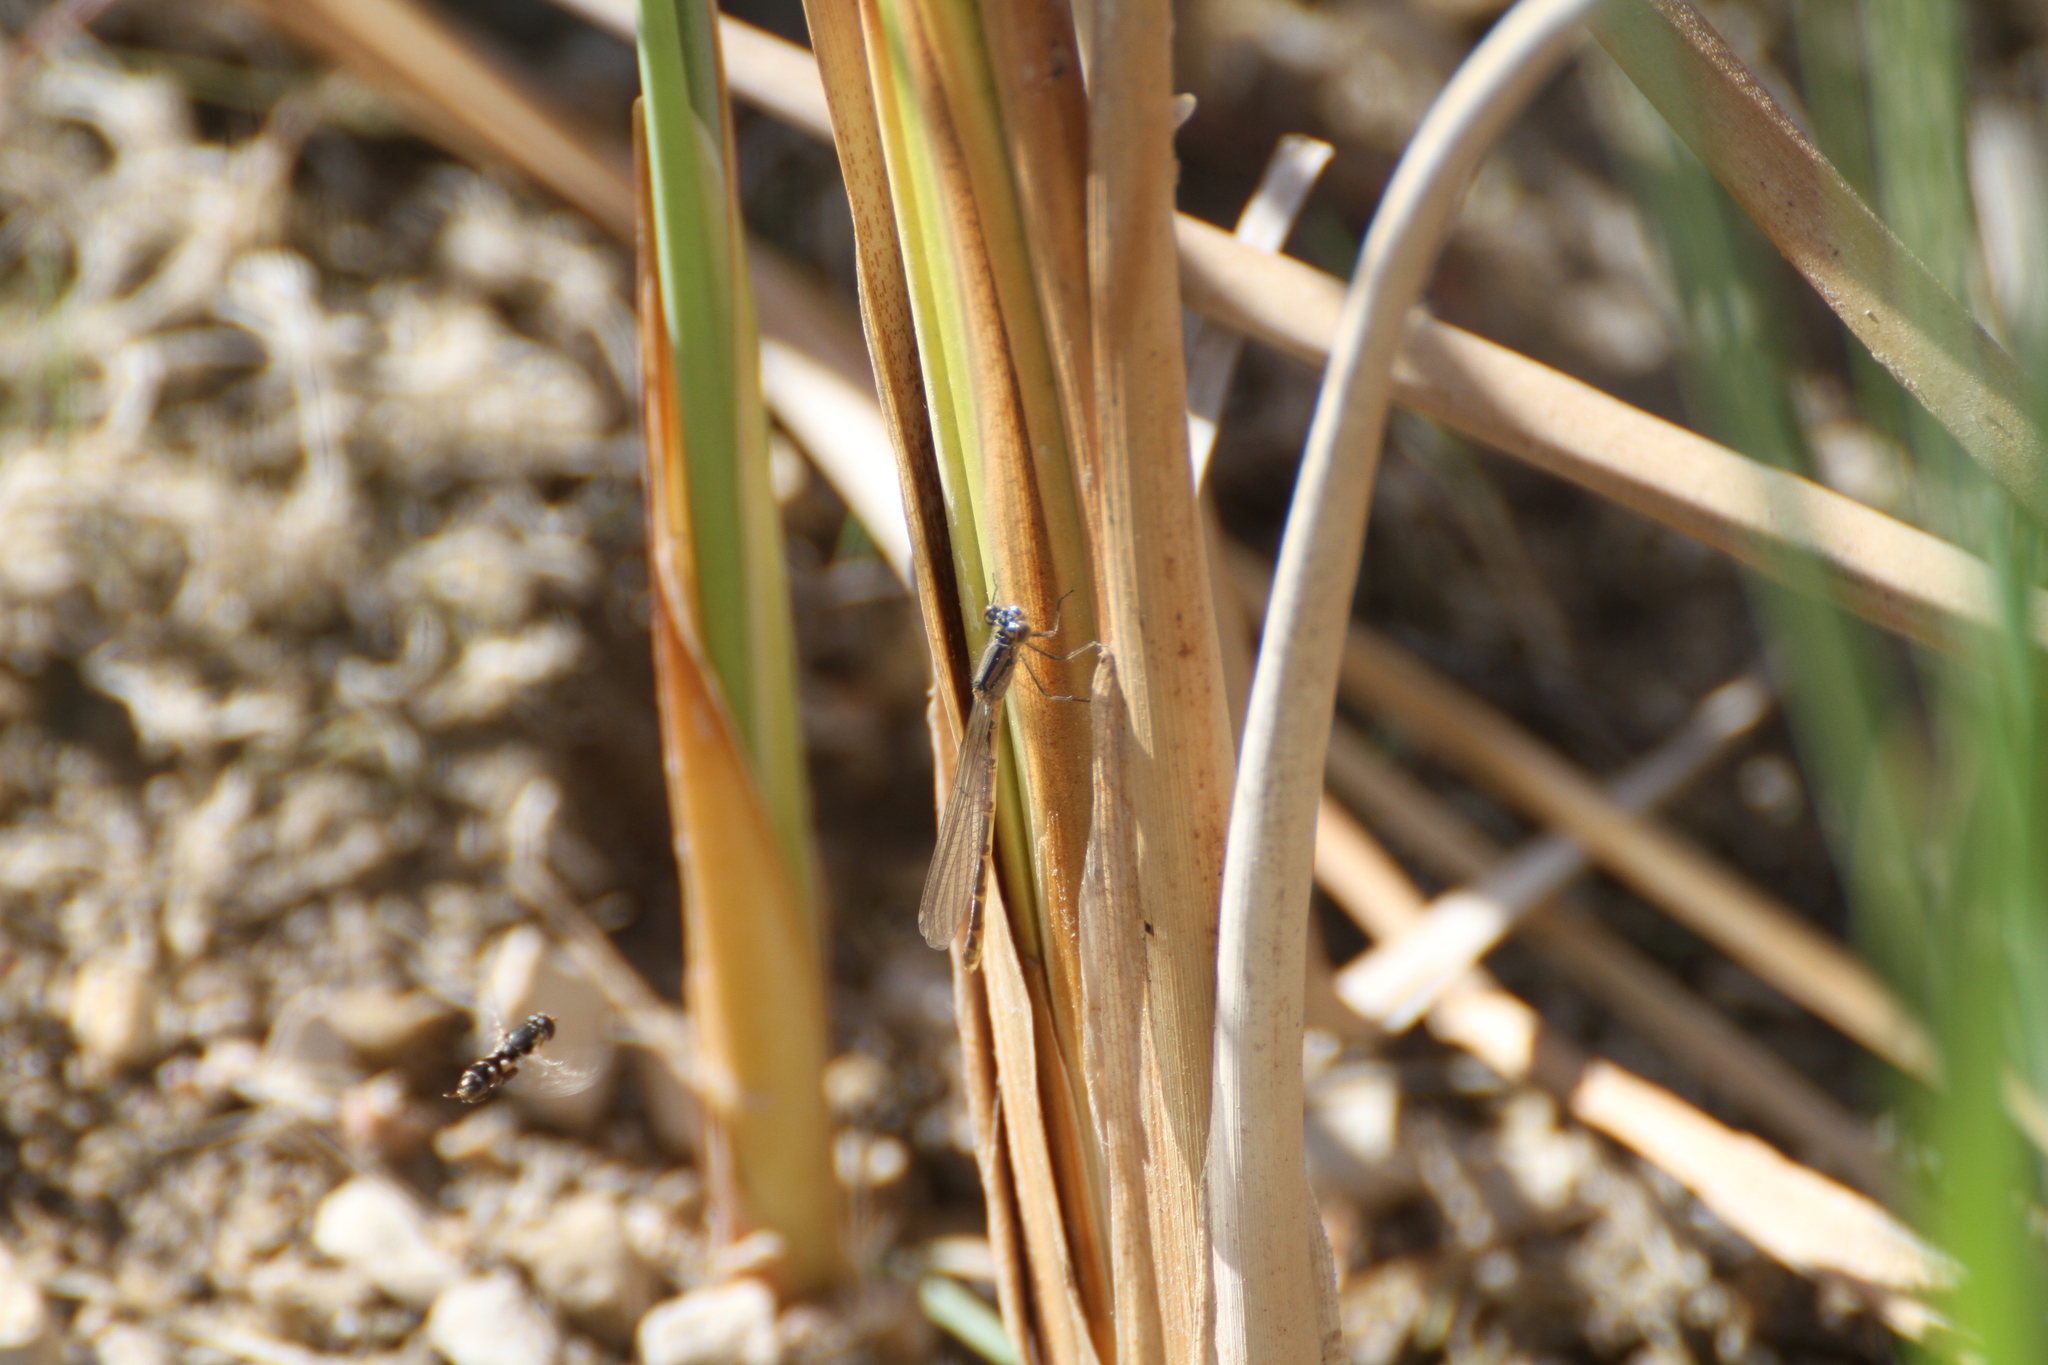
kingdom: Animalia
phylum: Arthropoda
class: Insecta
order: Odonata
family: Coenagrionidae
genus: Enallagma
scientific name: Enallagma cyathigerum
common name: Common blue damselfly
